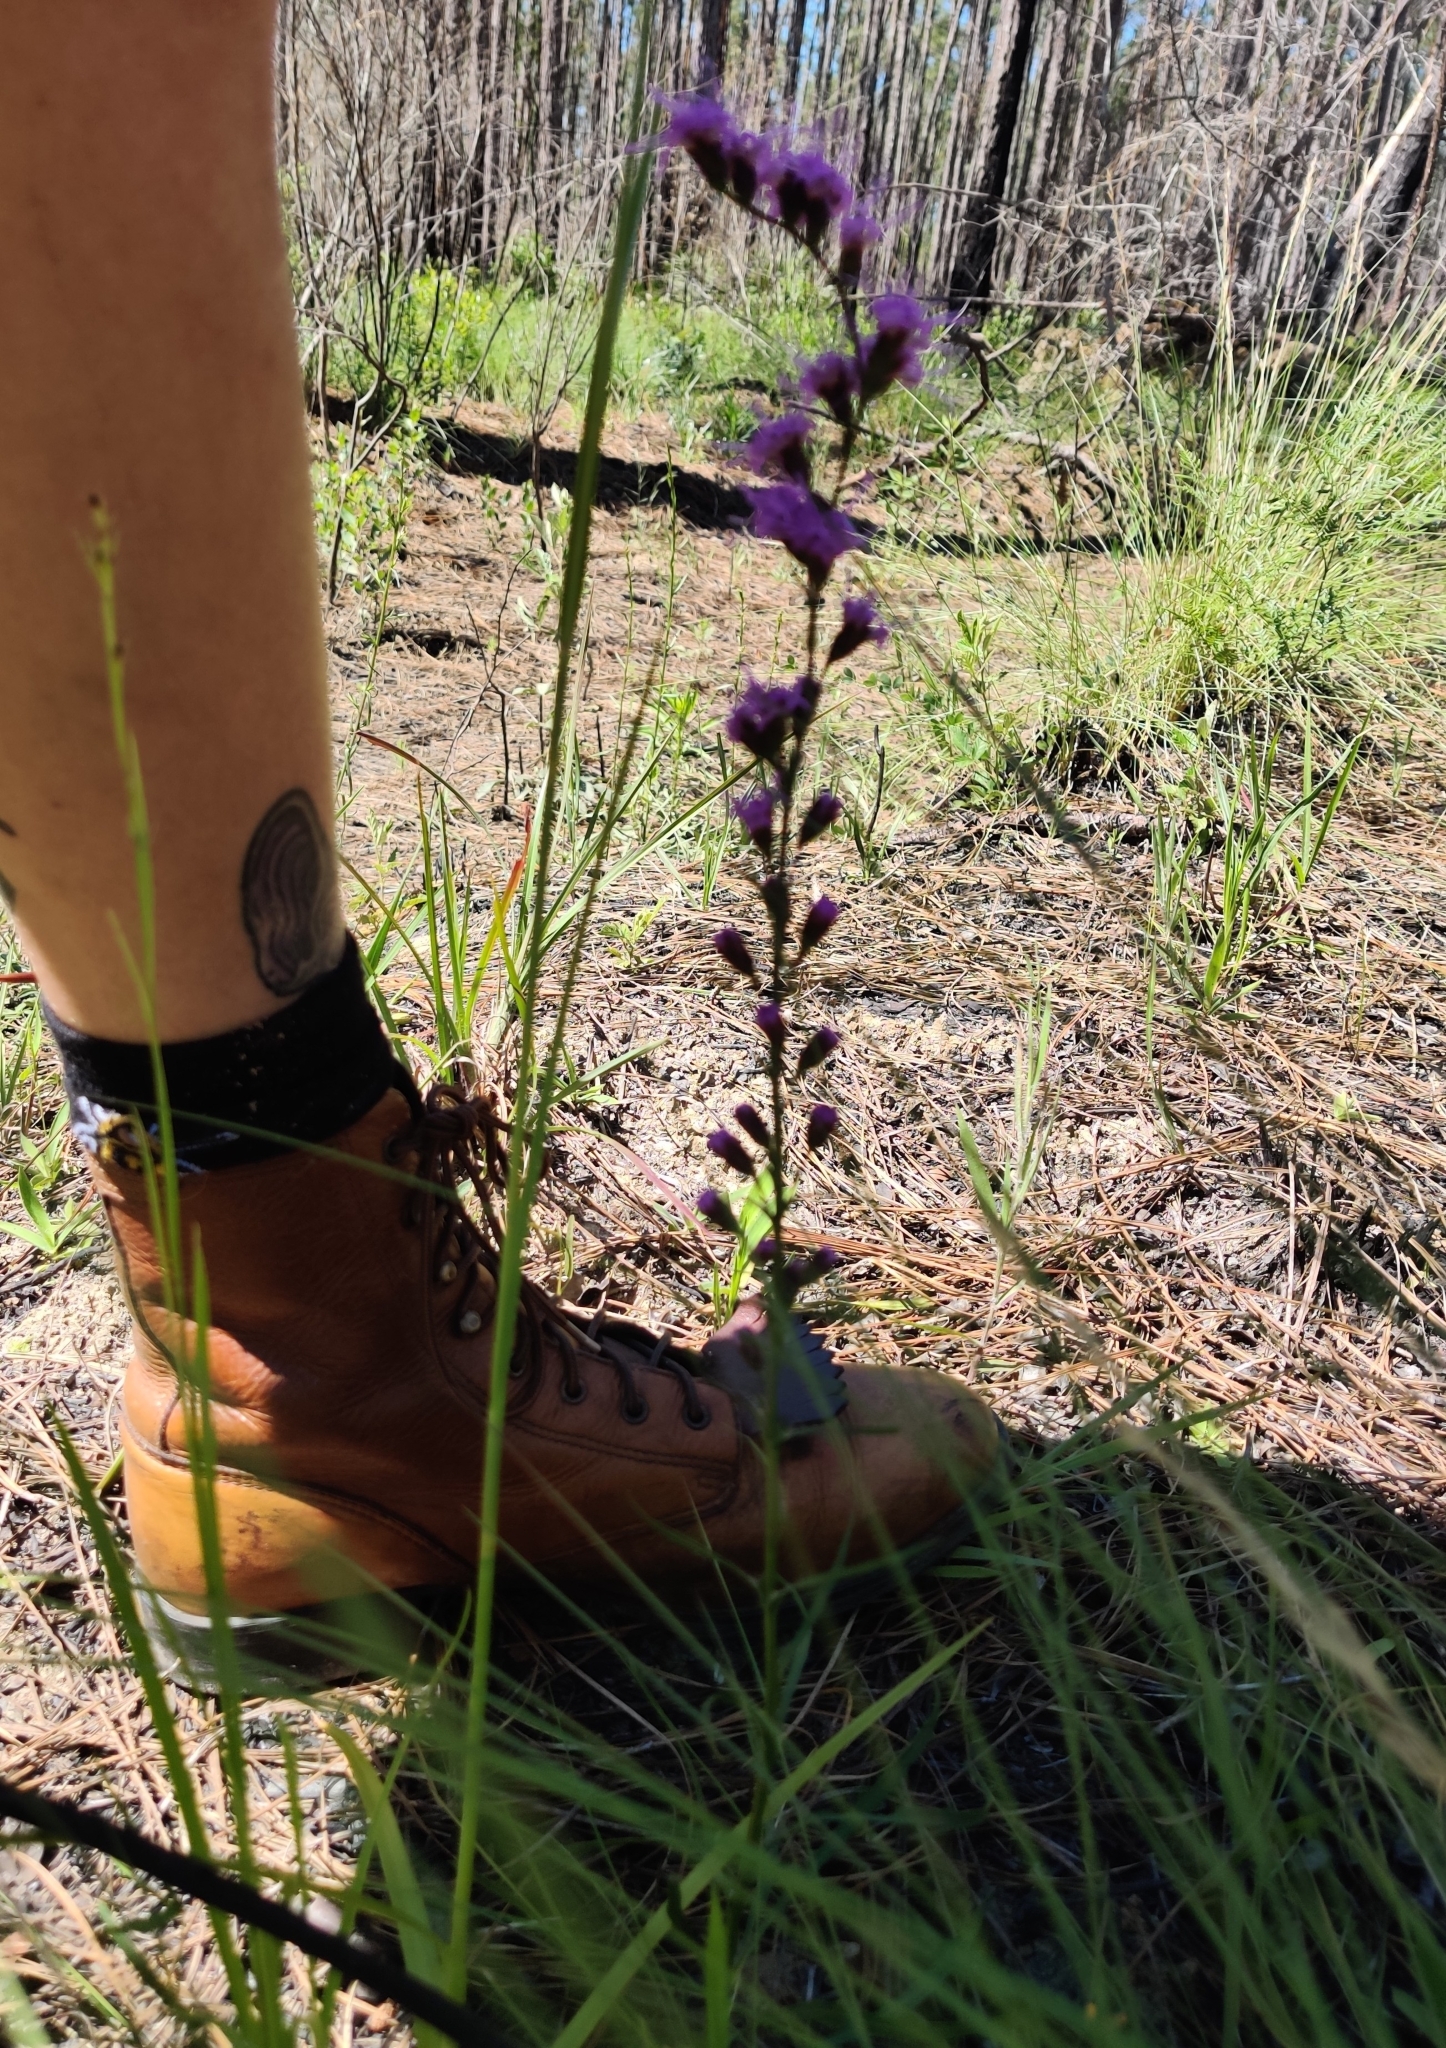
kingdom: Plantae
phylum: Tracheophyta
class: Magnoliopsida
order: Asterales
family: Asteraceae
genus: Liatris
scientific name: Liatris pauciflora
